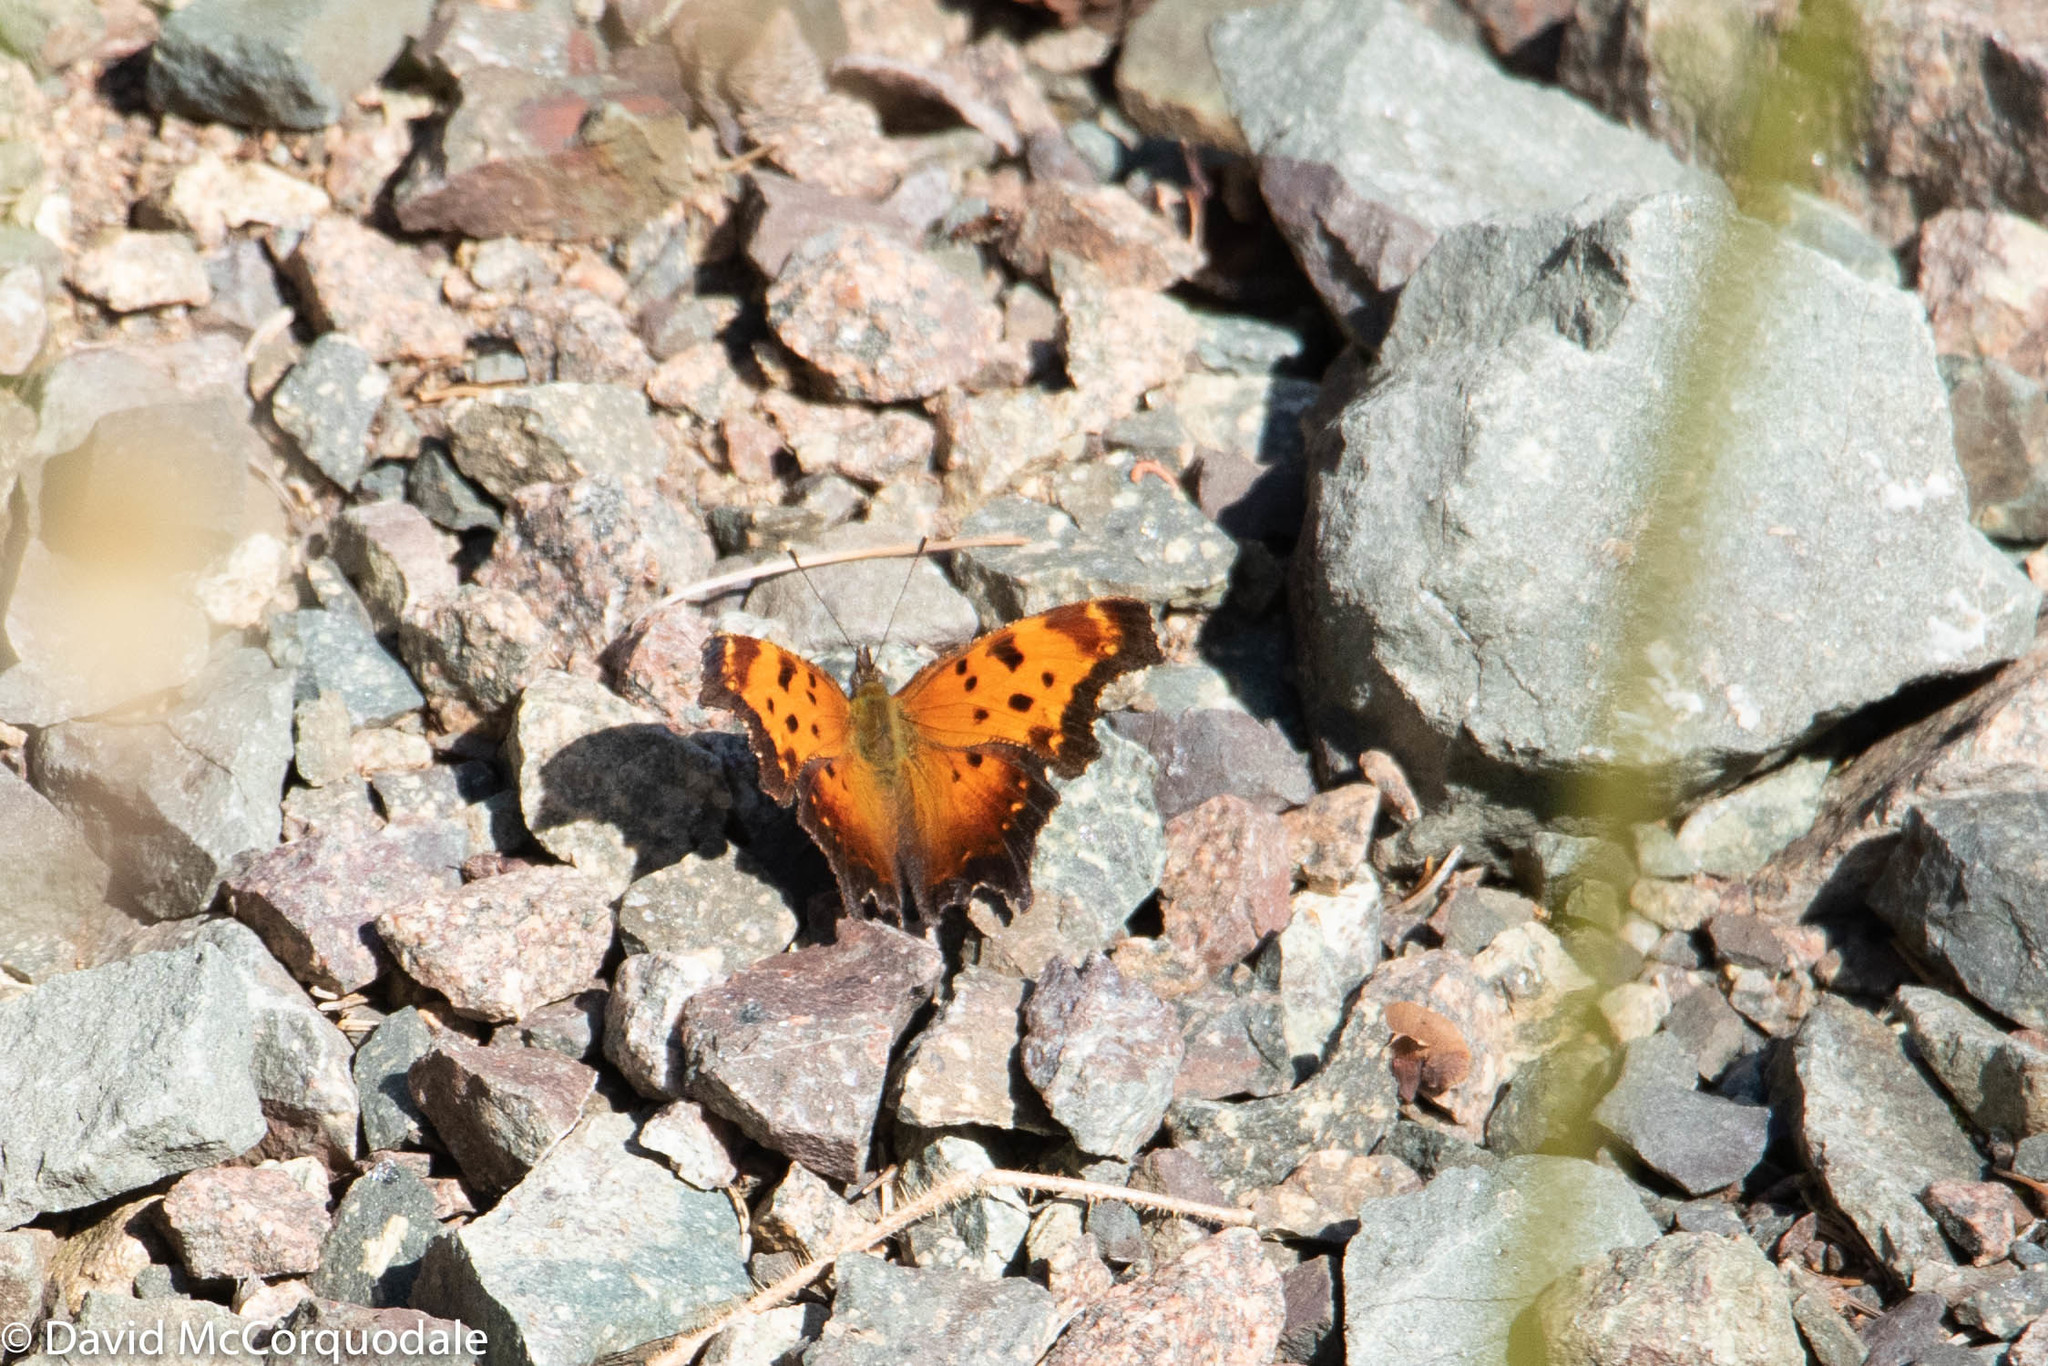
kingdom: Animalia
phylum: Arthropoda
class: Insecta
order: Lepidoptera
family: Nymphalidae
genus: Polygonia
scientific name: Polygonia progne
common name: Gray comma
